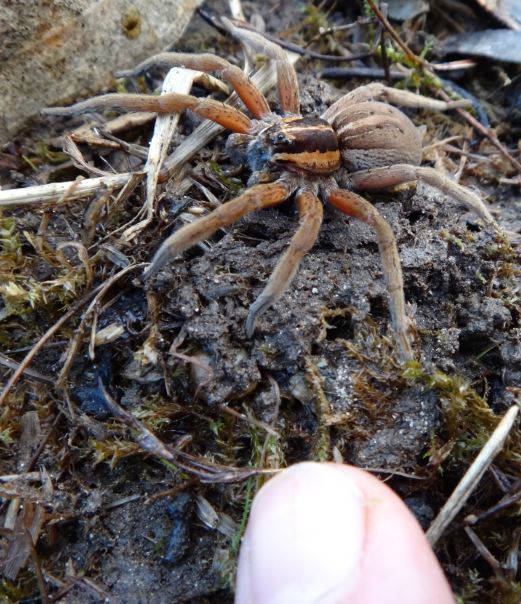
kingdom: Animalia
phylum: Arthropoda
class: Arachnida
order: Araneae
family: Pisauridae
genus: Dolomedes
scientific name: Dolomedes minor
